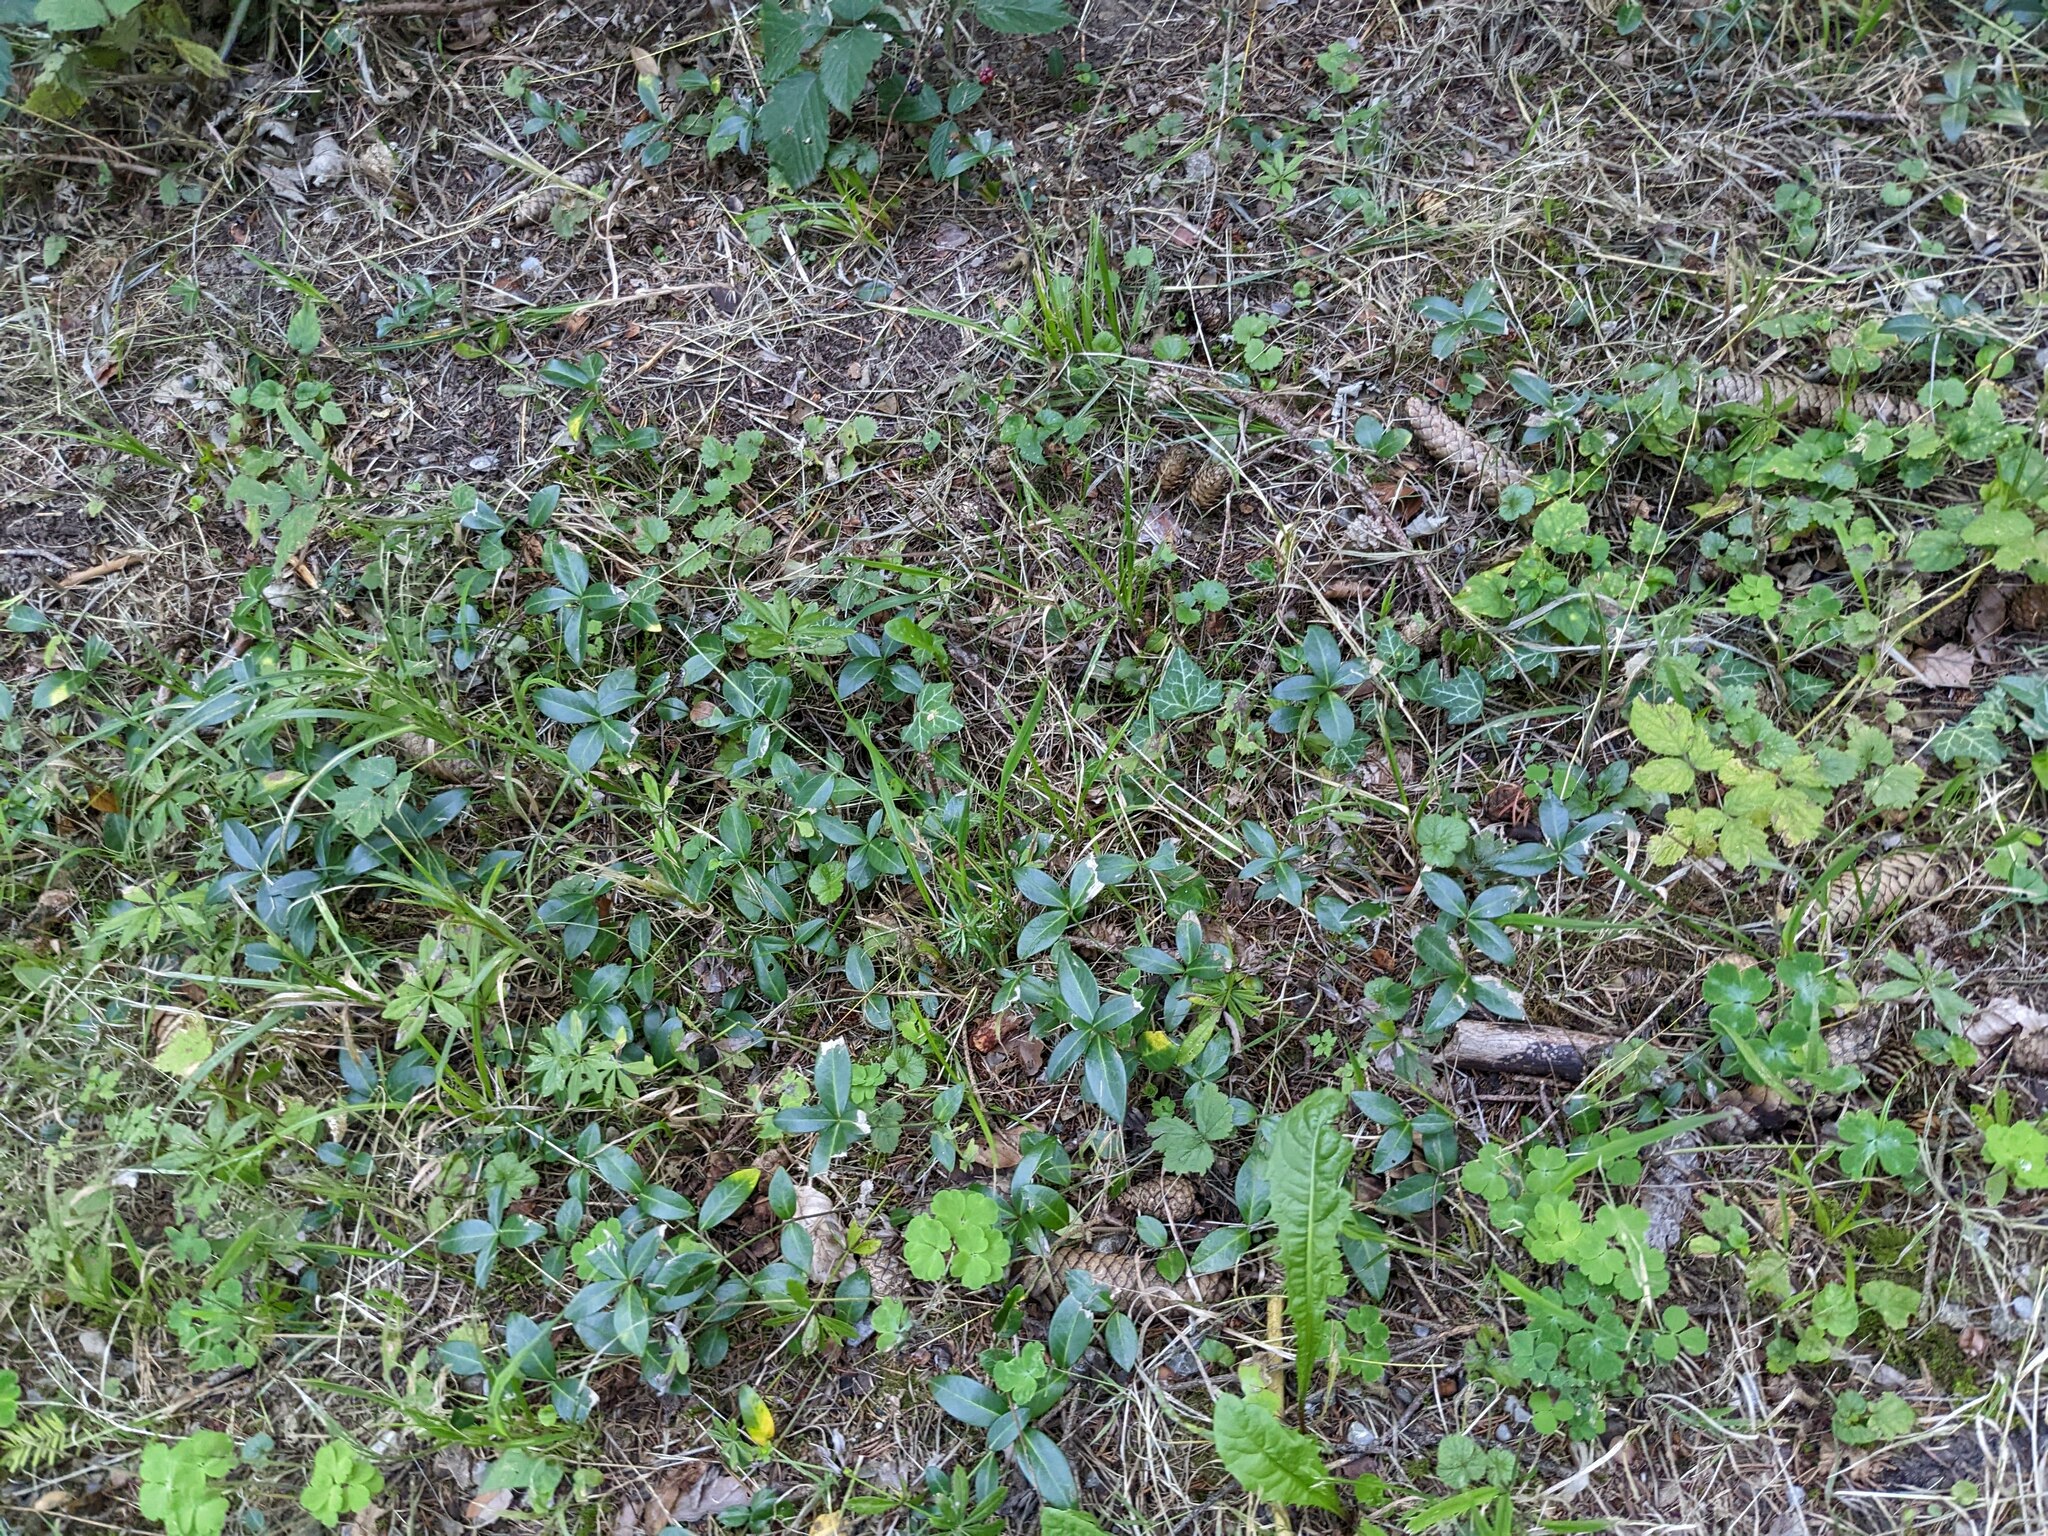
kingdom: Plantae
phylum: Tracheophyta
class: Magnoliopsida
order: Gentianales
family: Apocynaceae
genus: Vinca
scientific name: Vinca minor
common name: Lesser periwinkle
